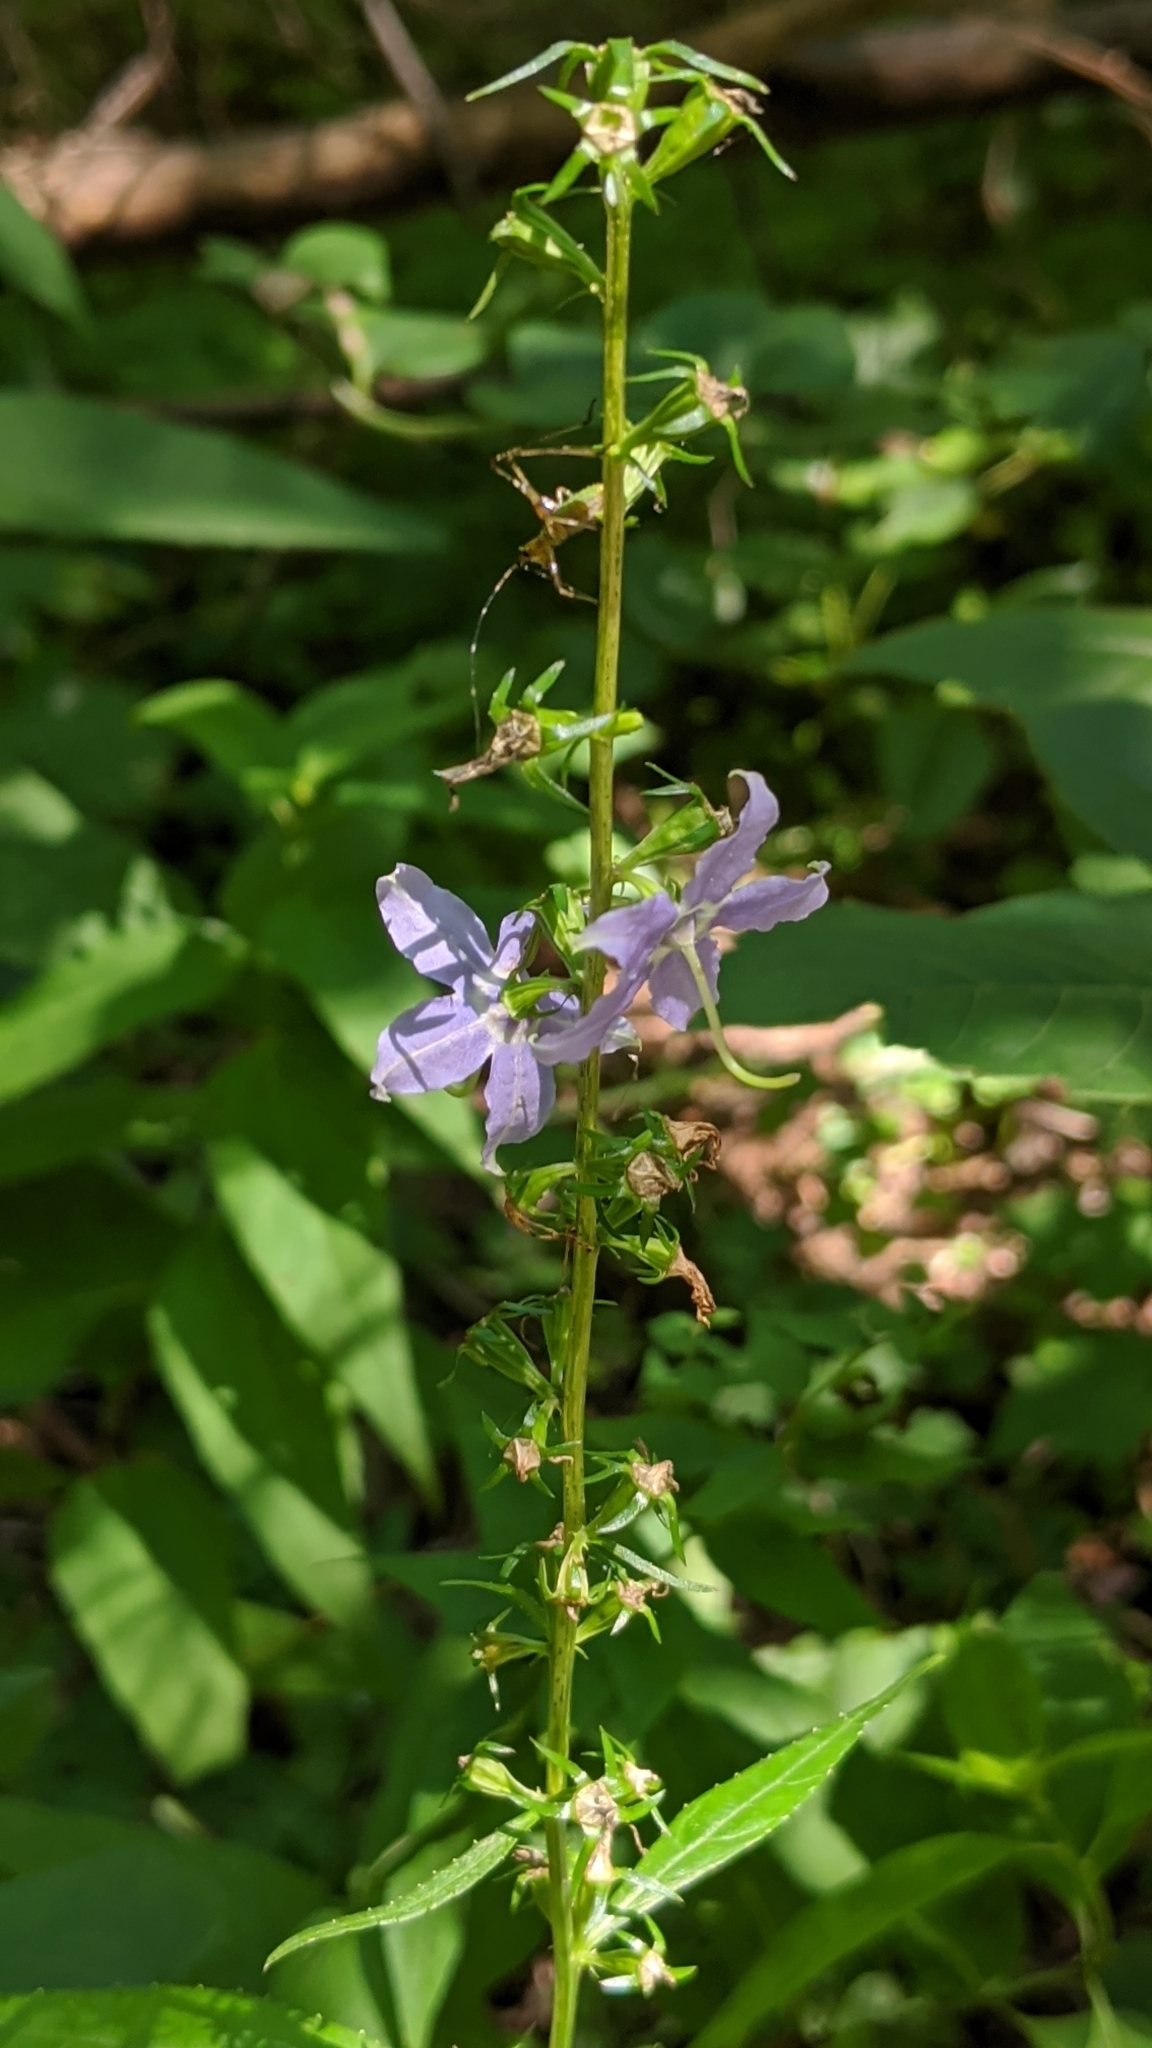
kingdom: Plantae
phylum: Tracheophyta
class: Magnoliopsida
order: Asterales
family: Campanulaceae
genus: Campanulastrum
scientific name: Campanulastrum americanum
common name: American bellflower
